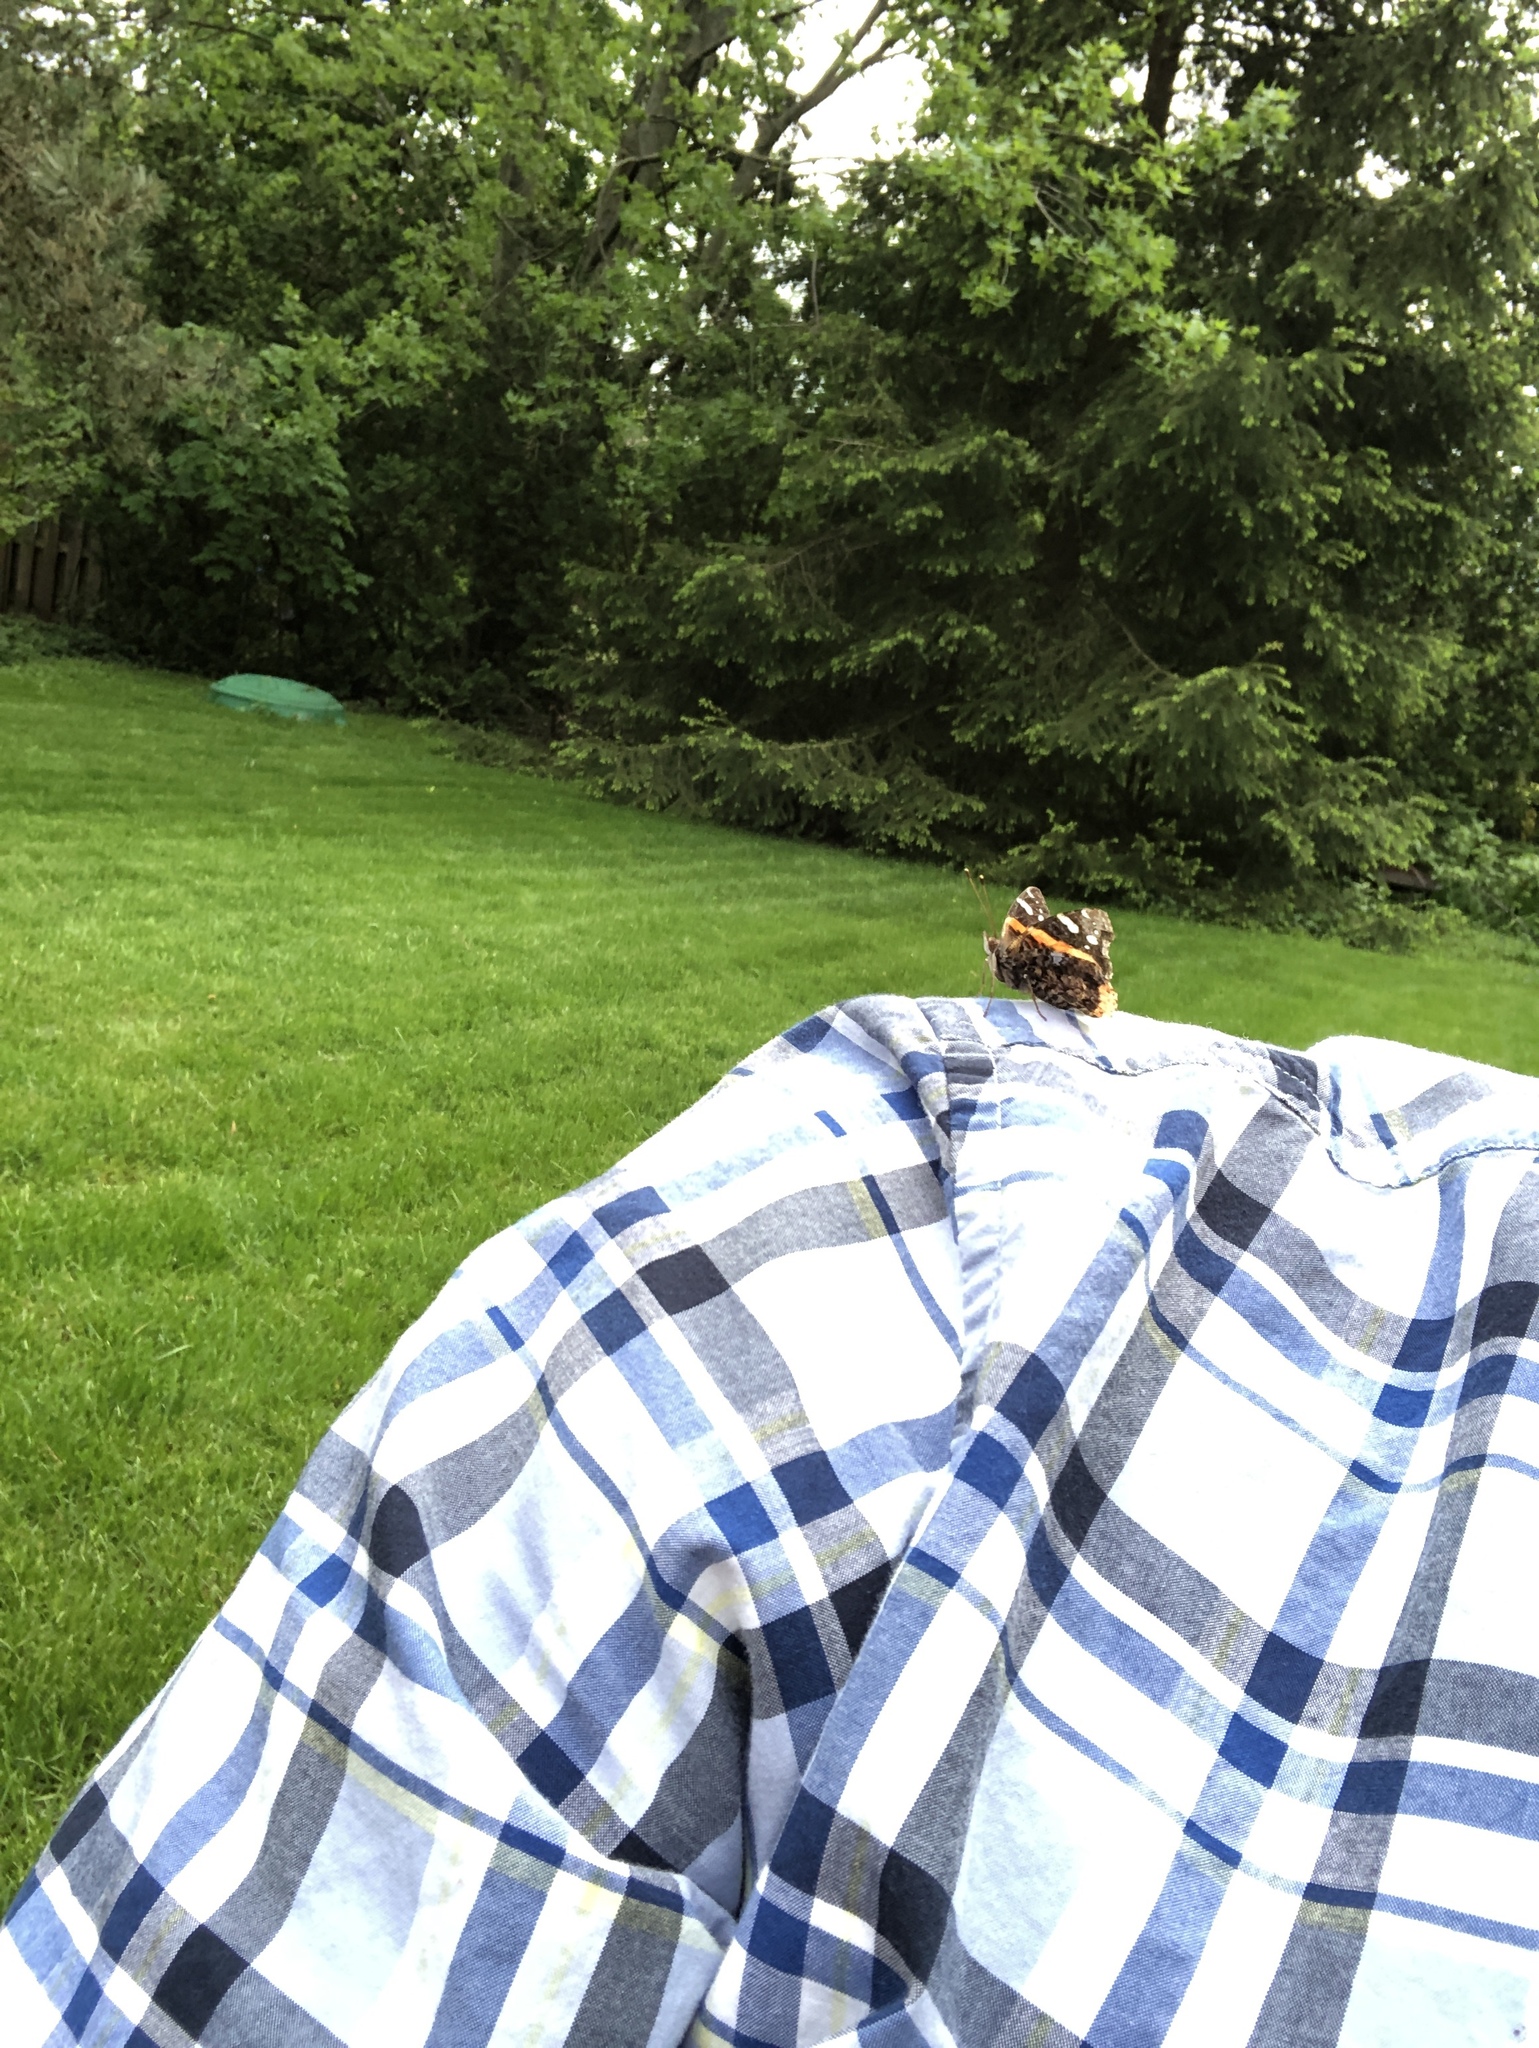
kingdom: Animalia
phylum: Arthropoda
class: Insecta
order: Lepidoptera
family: Nymphalidae
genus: Vanessa
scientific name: Vanessa atalanta
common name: Red admiral
